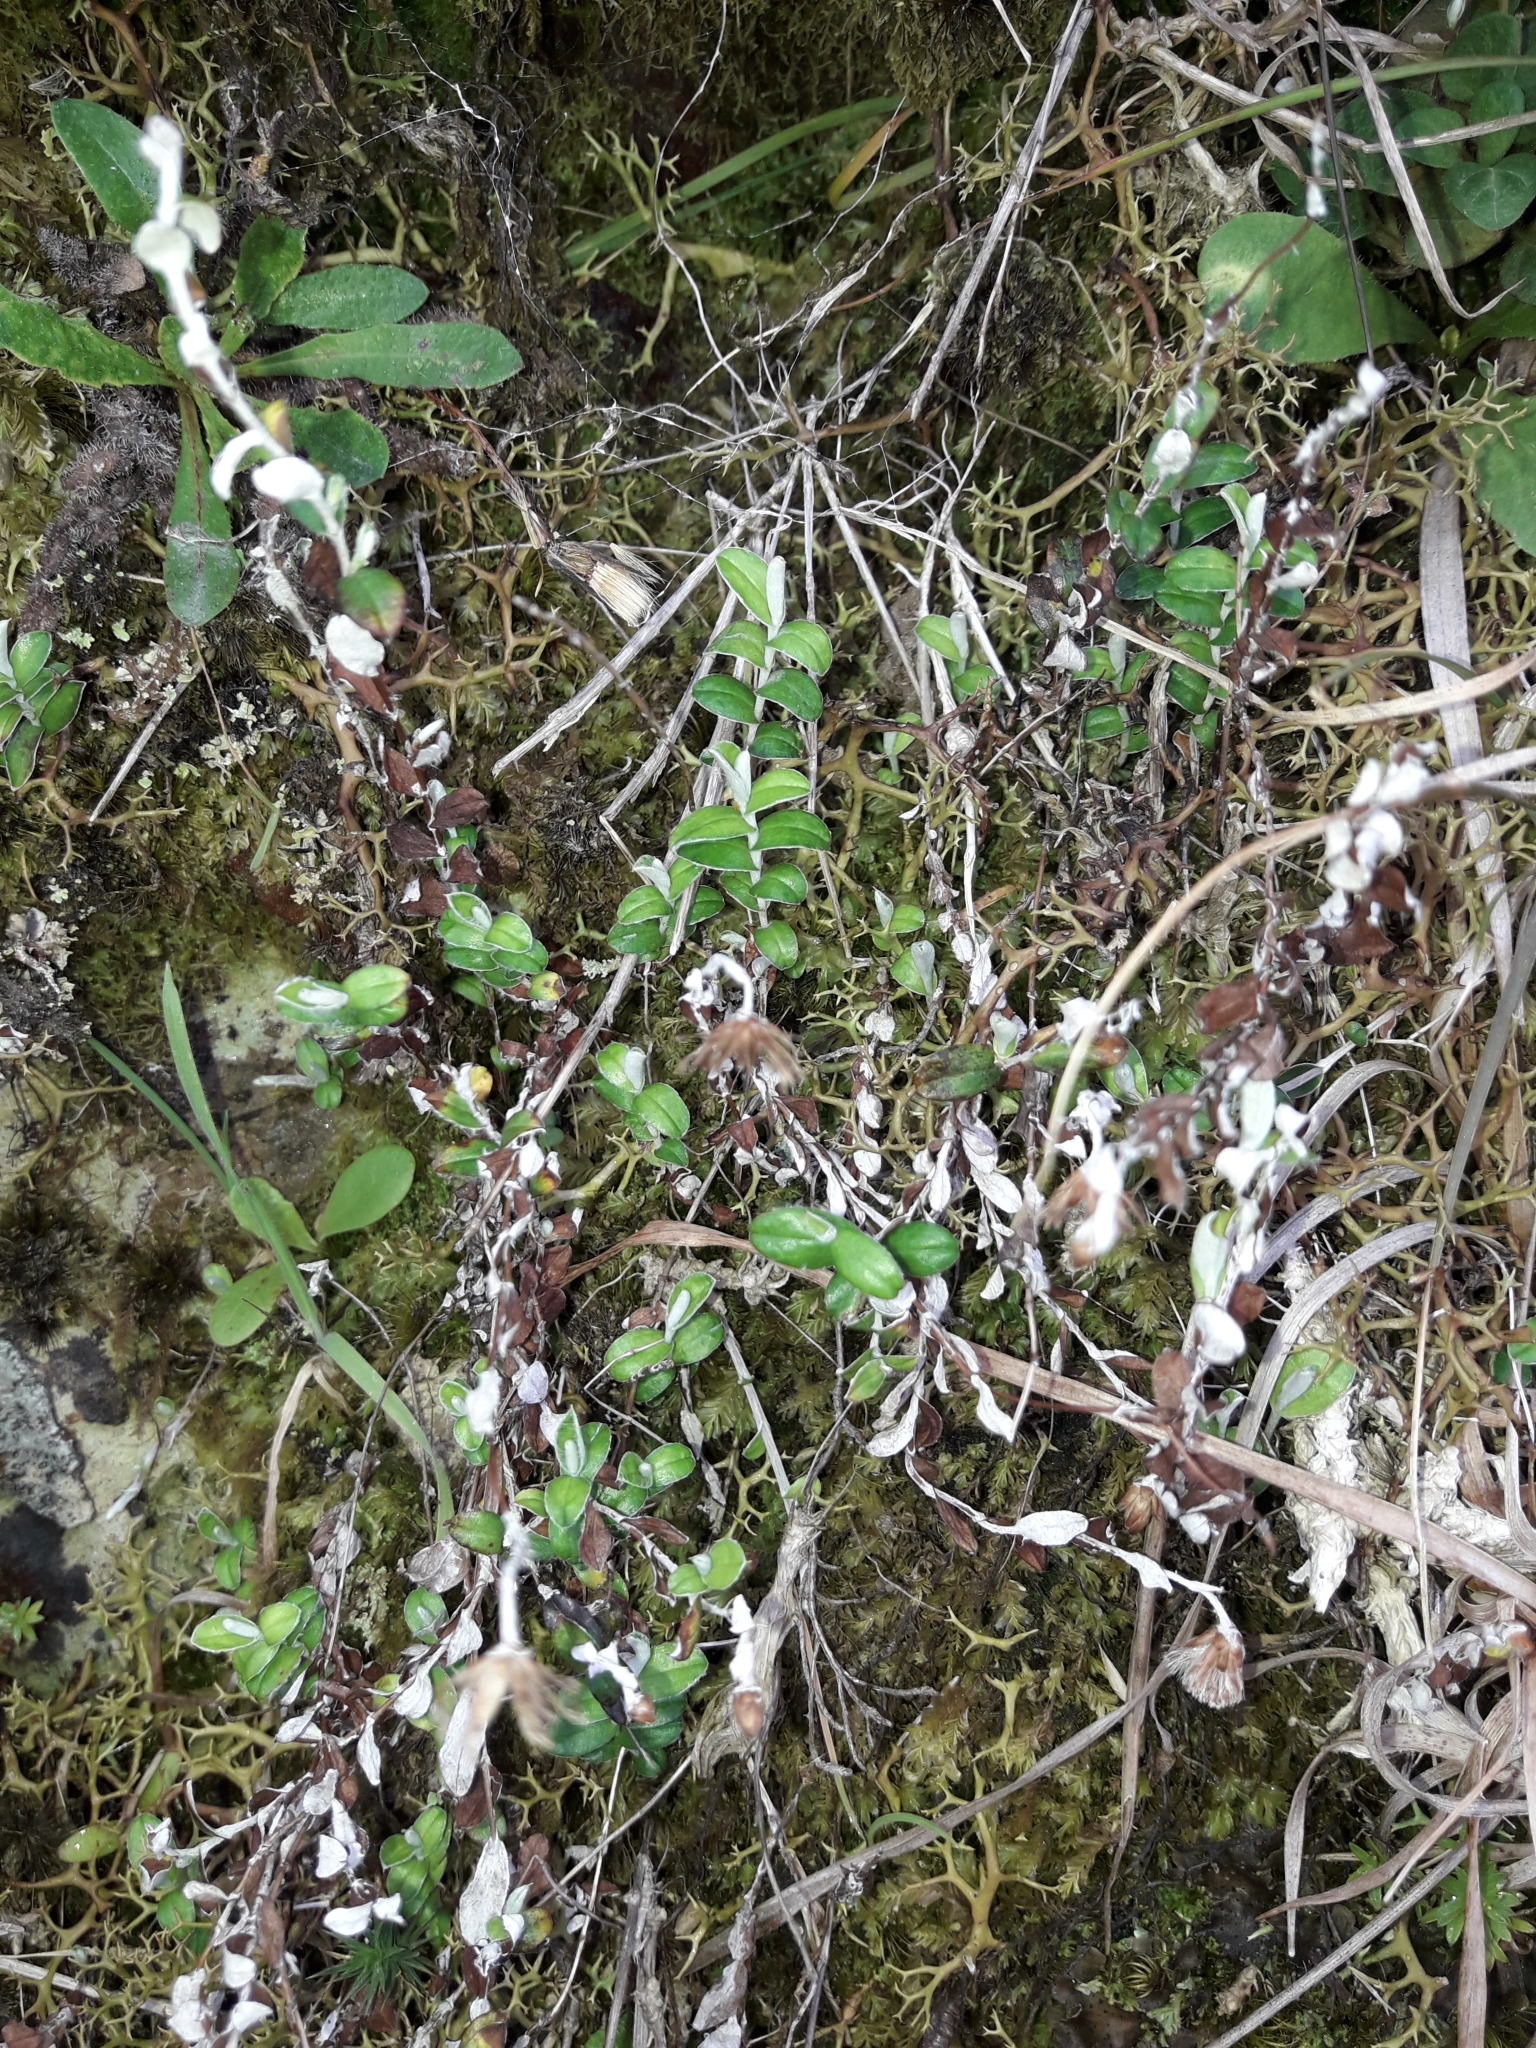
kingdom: Plantae
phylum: Tracheophyta
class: Magnoliopsida
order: Asterales
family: Asteraceae
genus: Helichrysum
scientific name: Helichrysum filicaule
